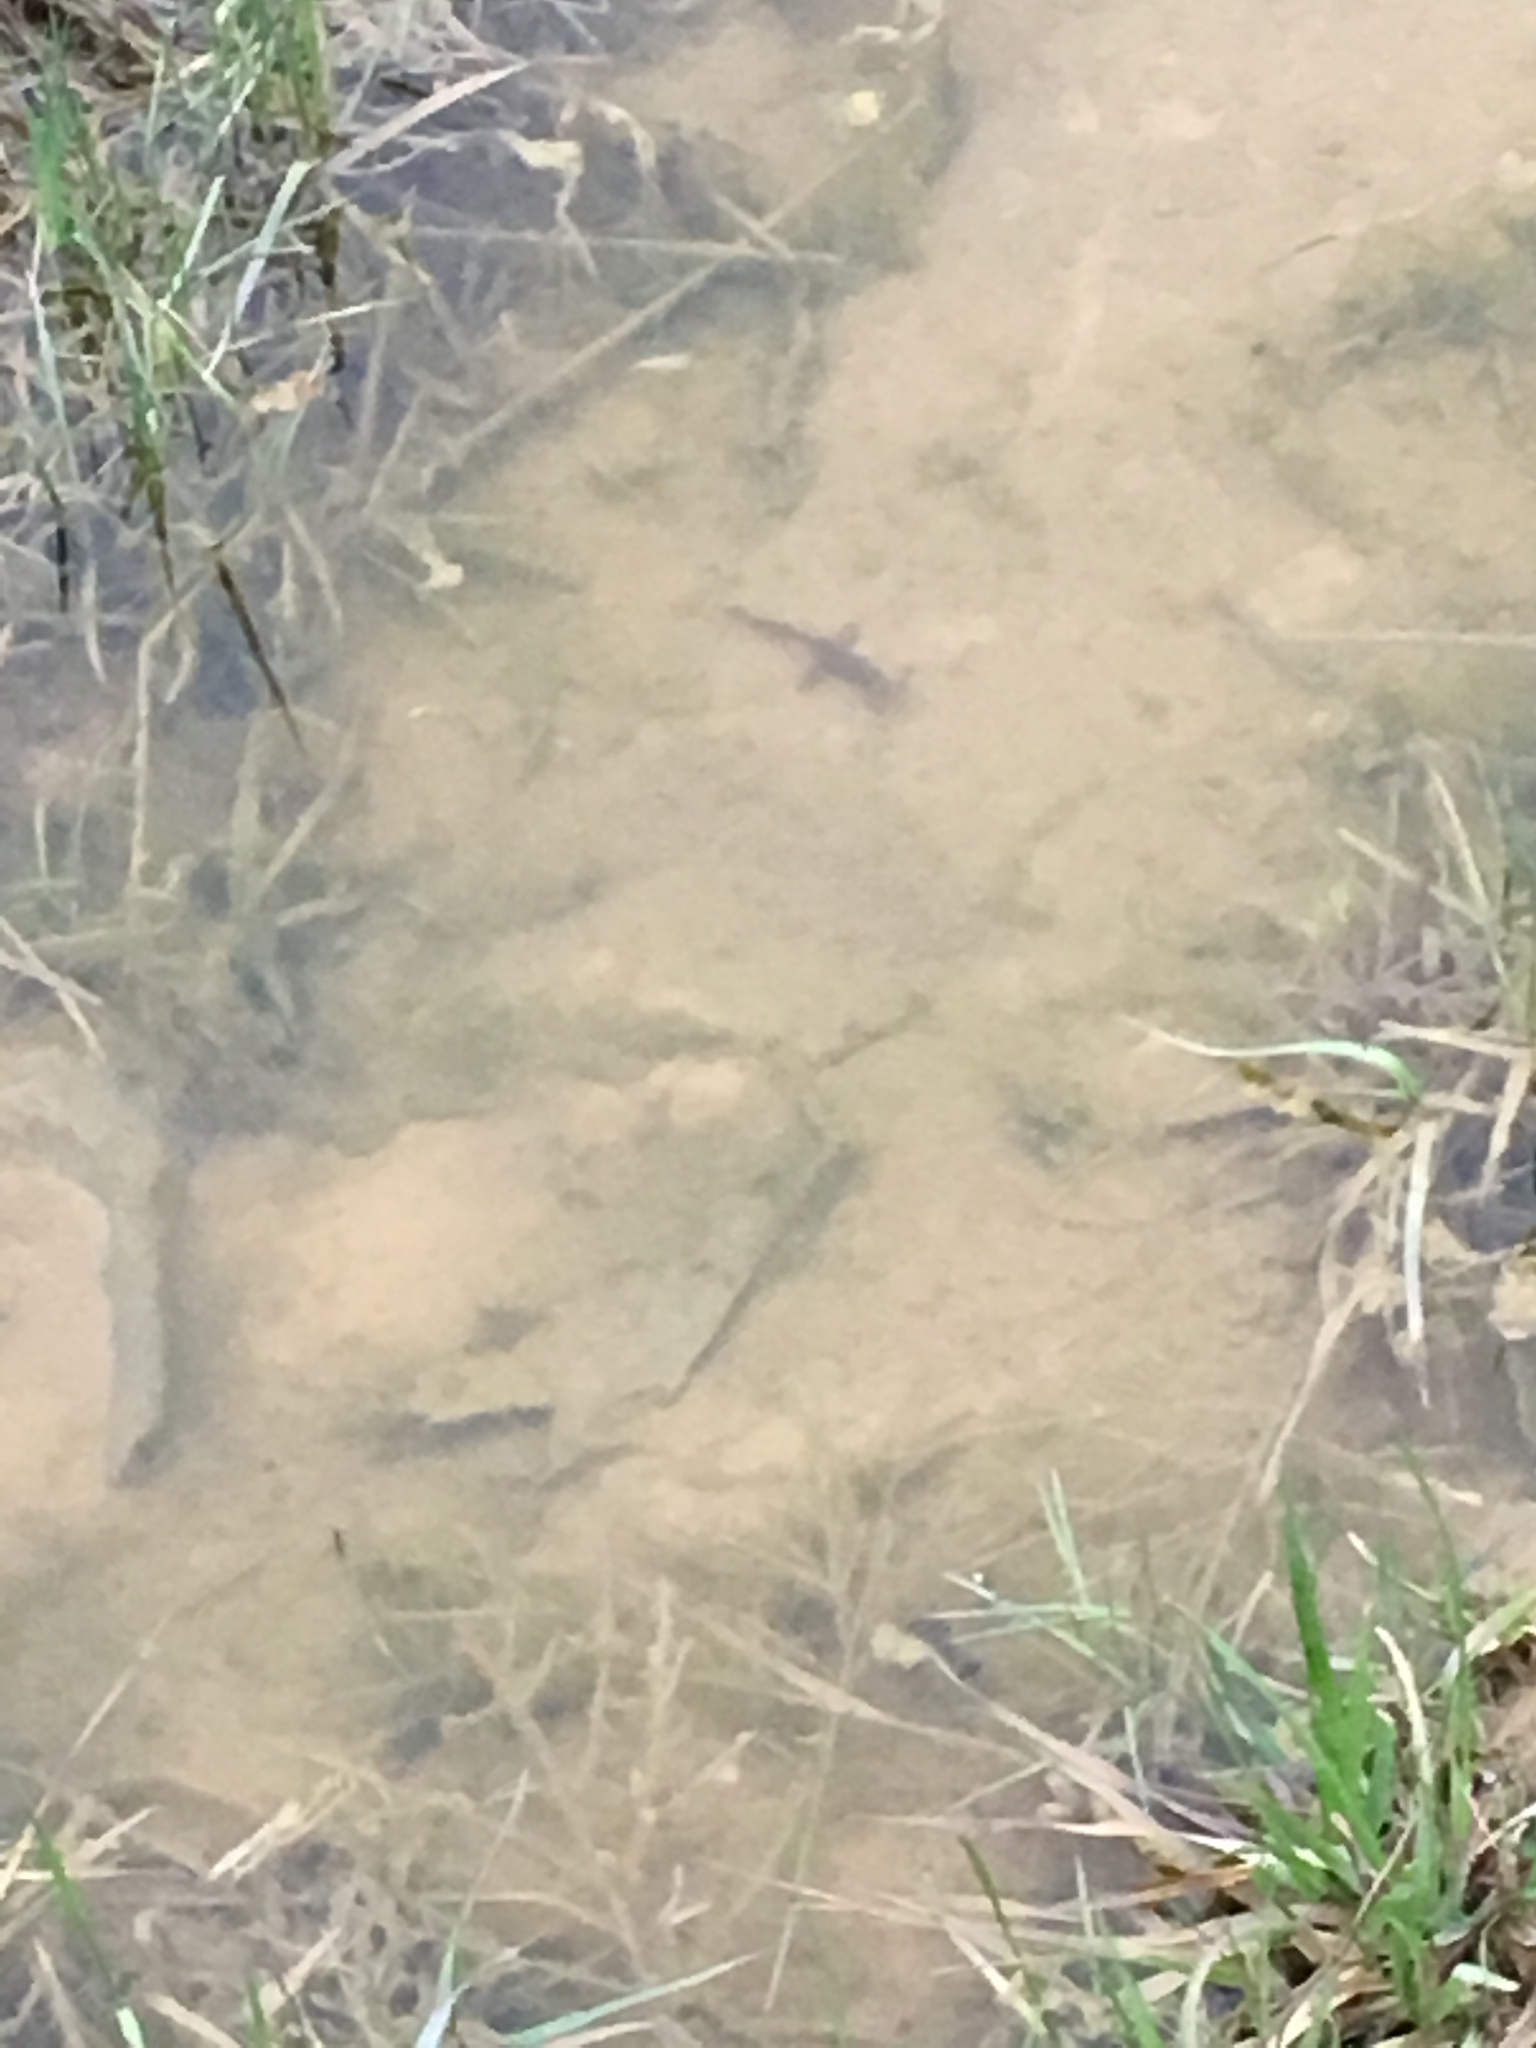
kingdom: Animalia
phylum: Chordata
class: Amphibia
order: Caudata
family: Salamandridae
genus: Notophthalmus
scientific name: Notophthalmus viridescens
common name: Eastern newt
